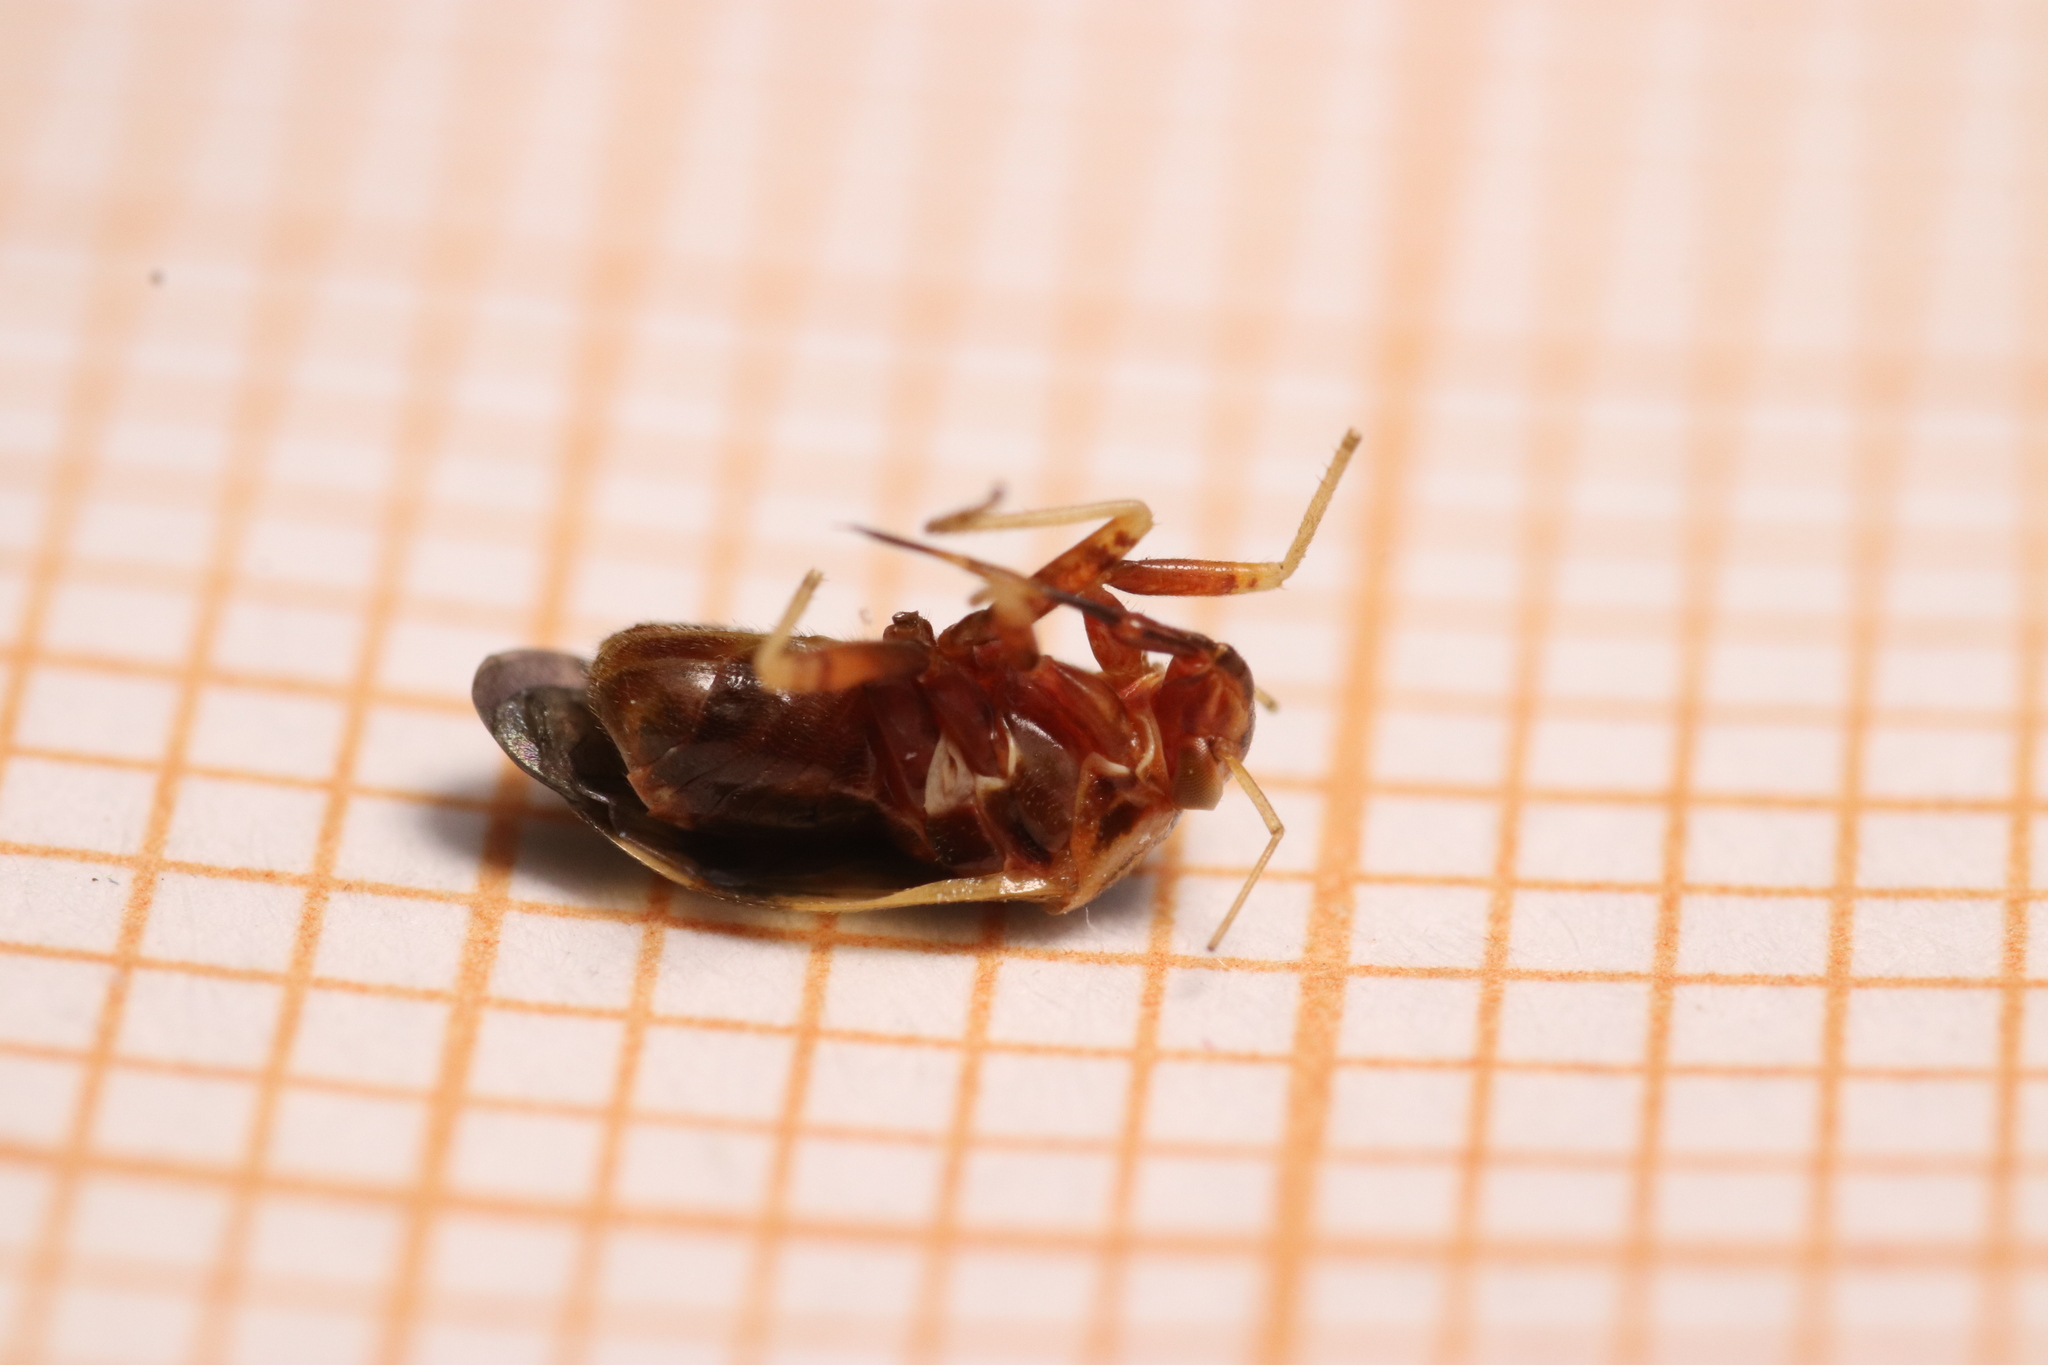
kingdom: Animalia
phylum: Arthropoda
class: Insecta
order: Hemiptera
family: Miridae
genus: Cyphodema
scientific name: Cyphodema instabilis
